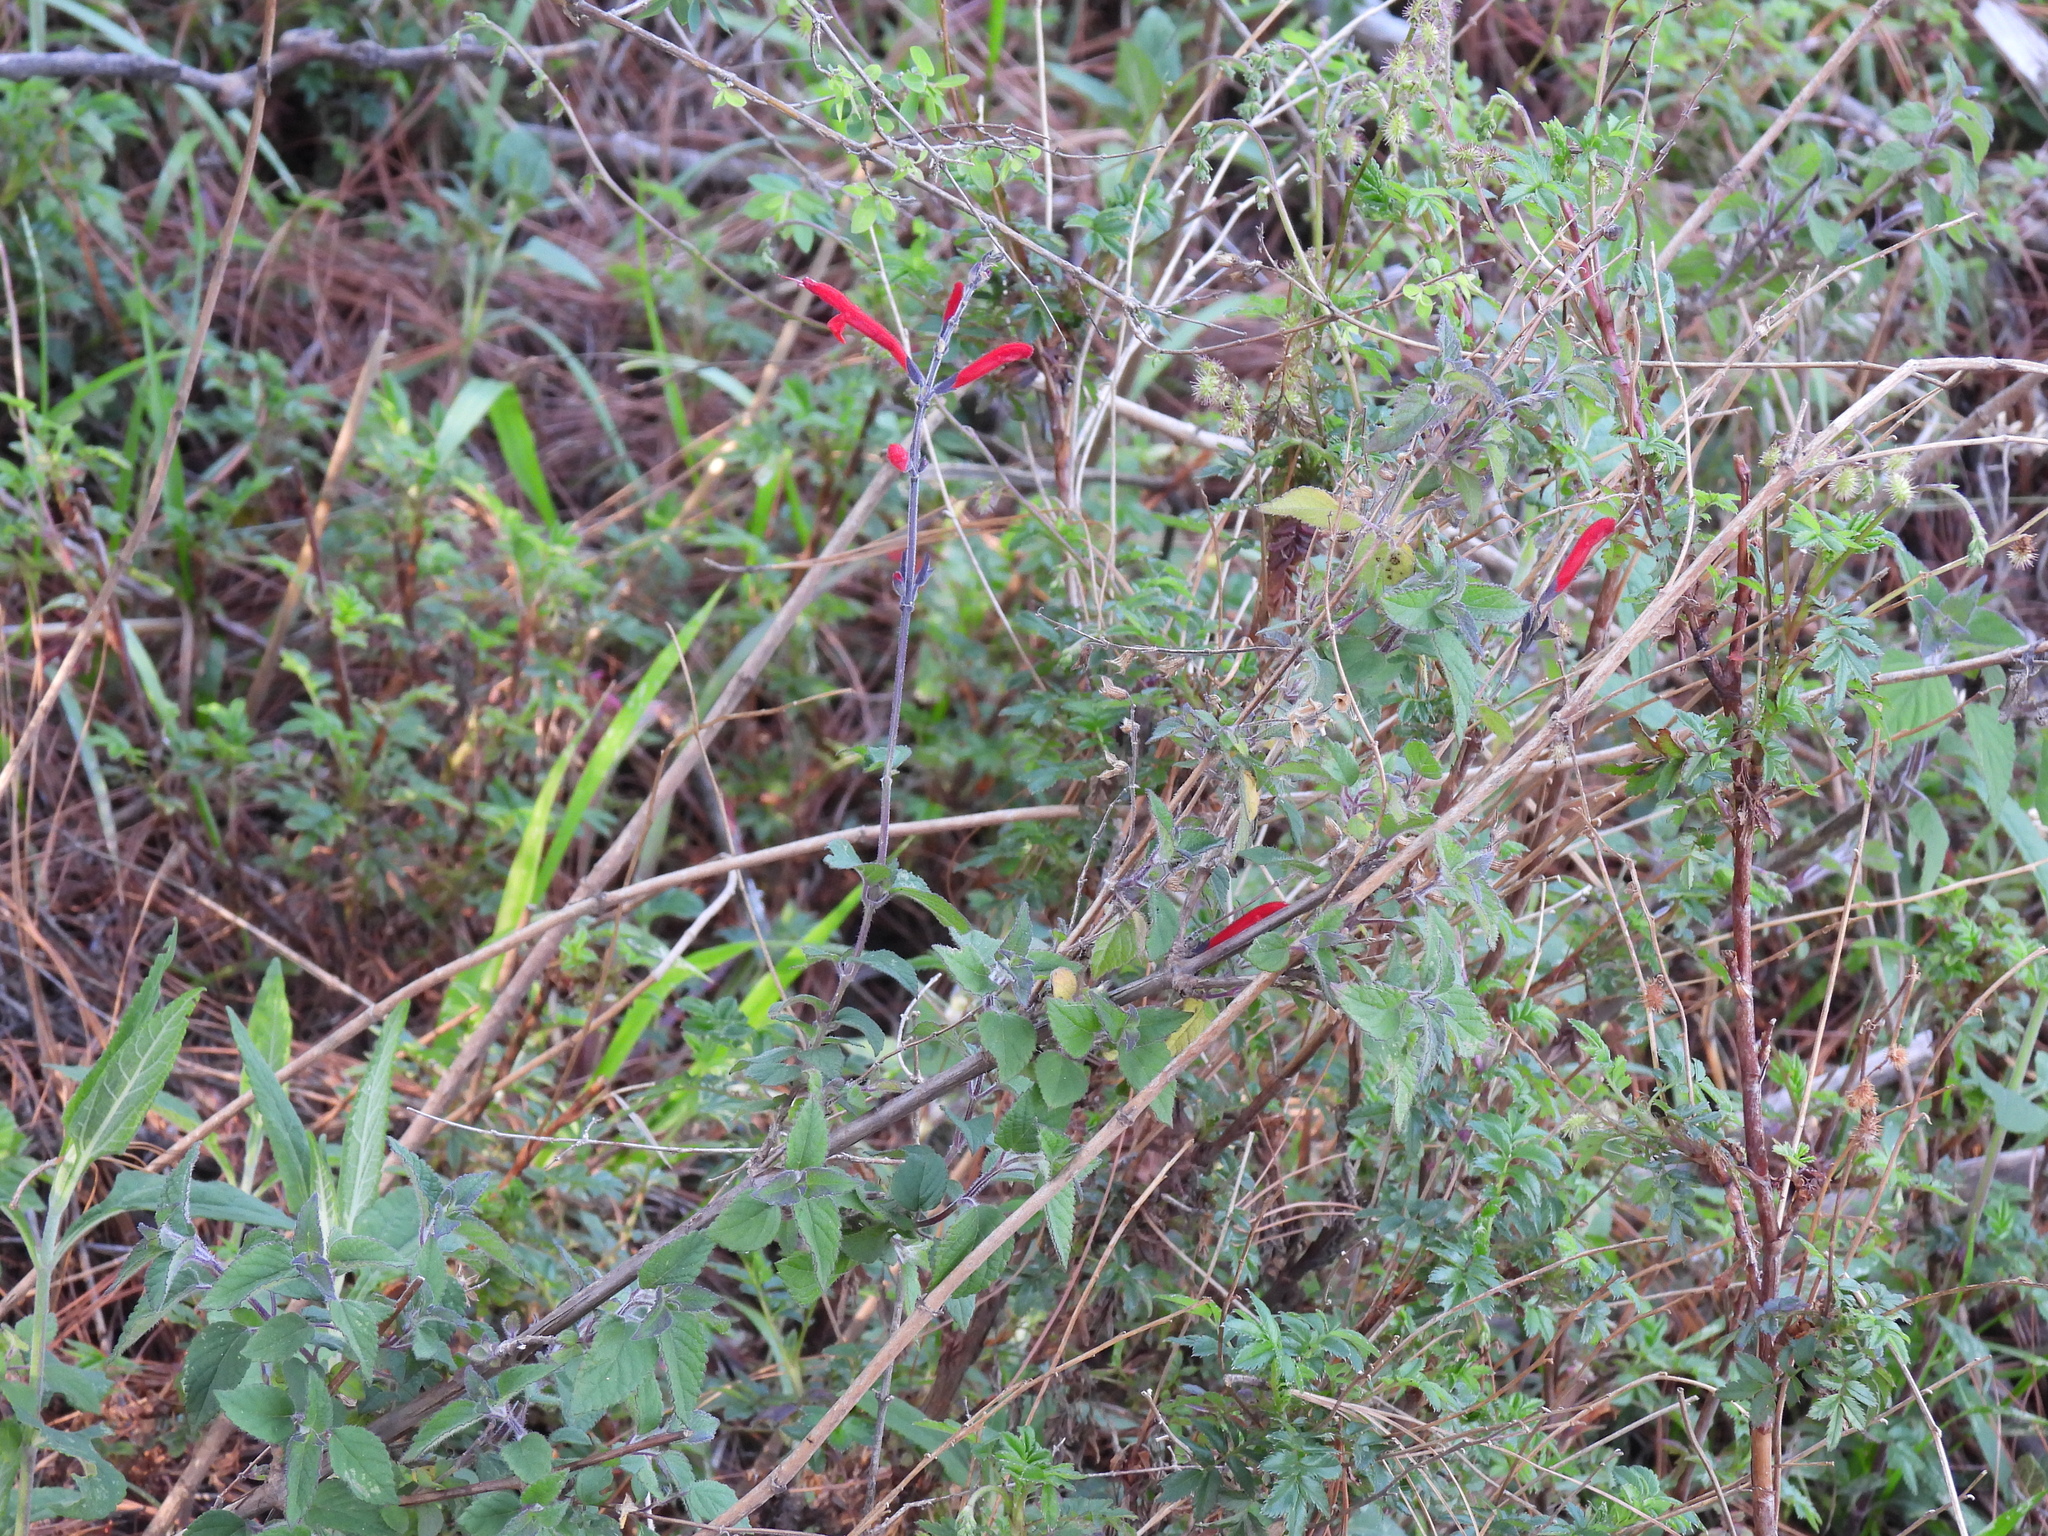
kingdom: Plantae
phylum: Tracheophyta
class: Magnoliopsida
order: Lamiales
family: Lamiaceae
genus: Salvia
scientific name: Salvia elegans
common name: Pineapple sage
